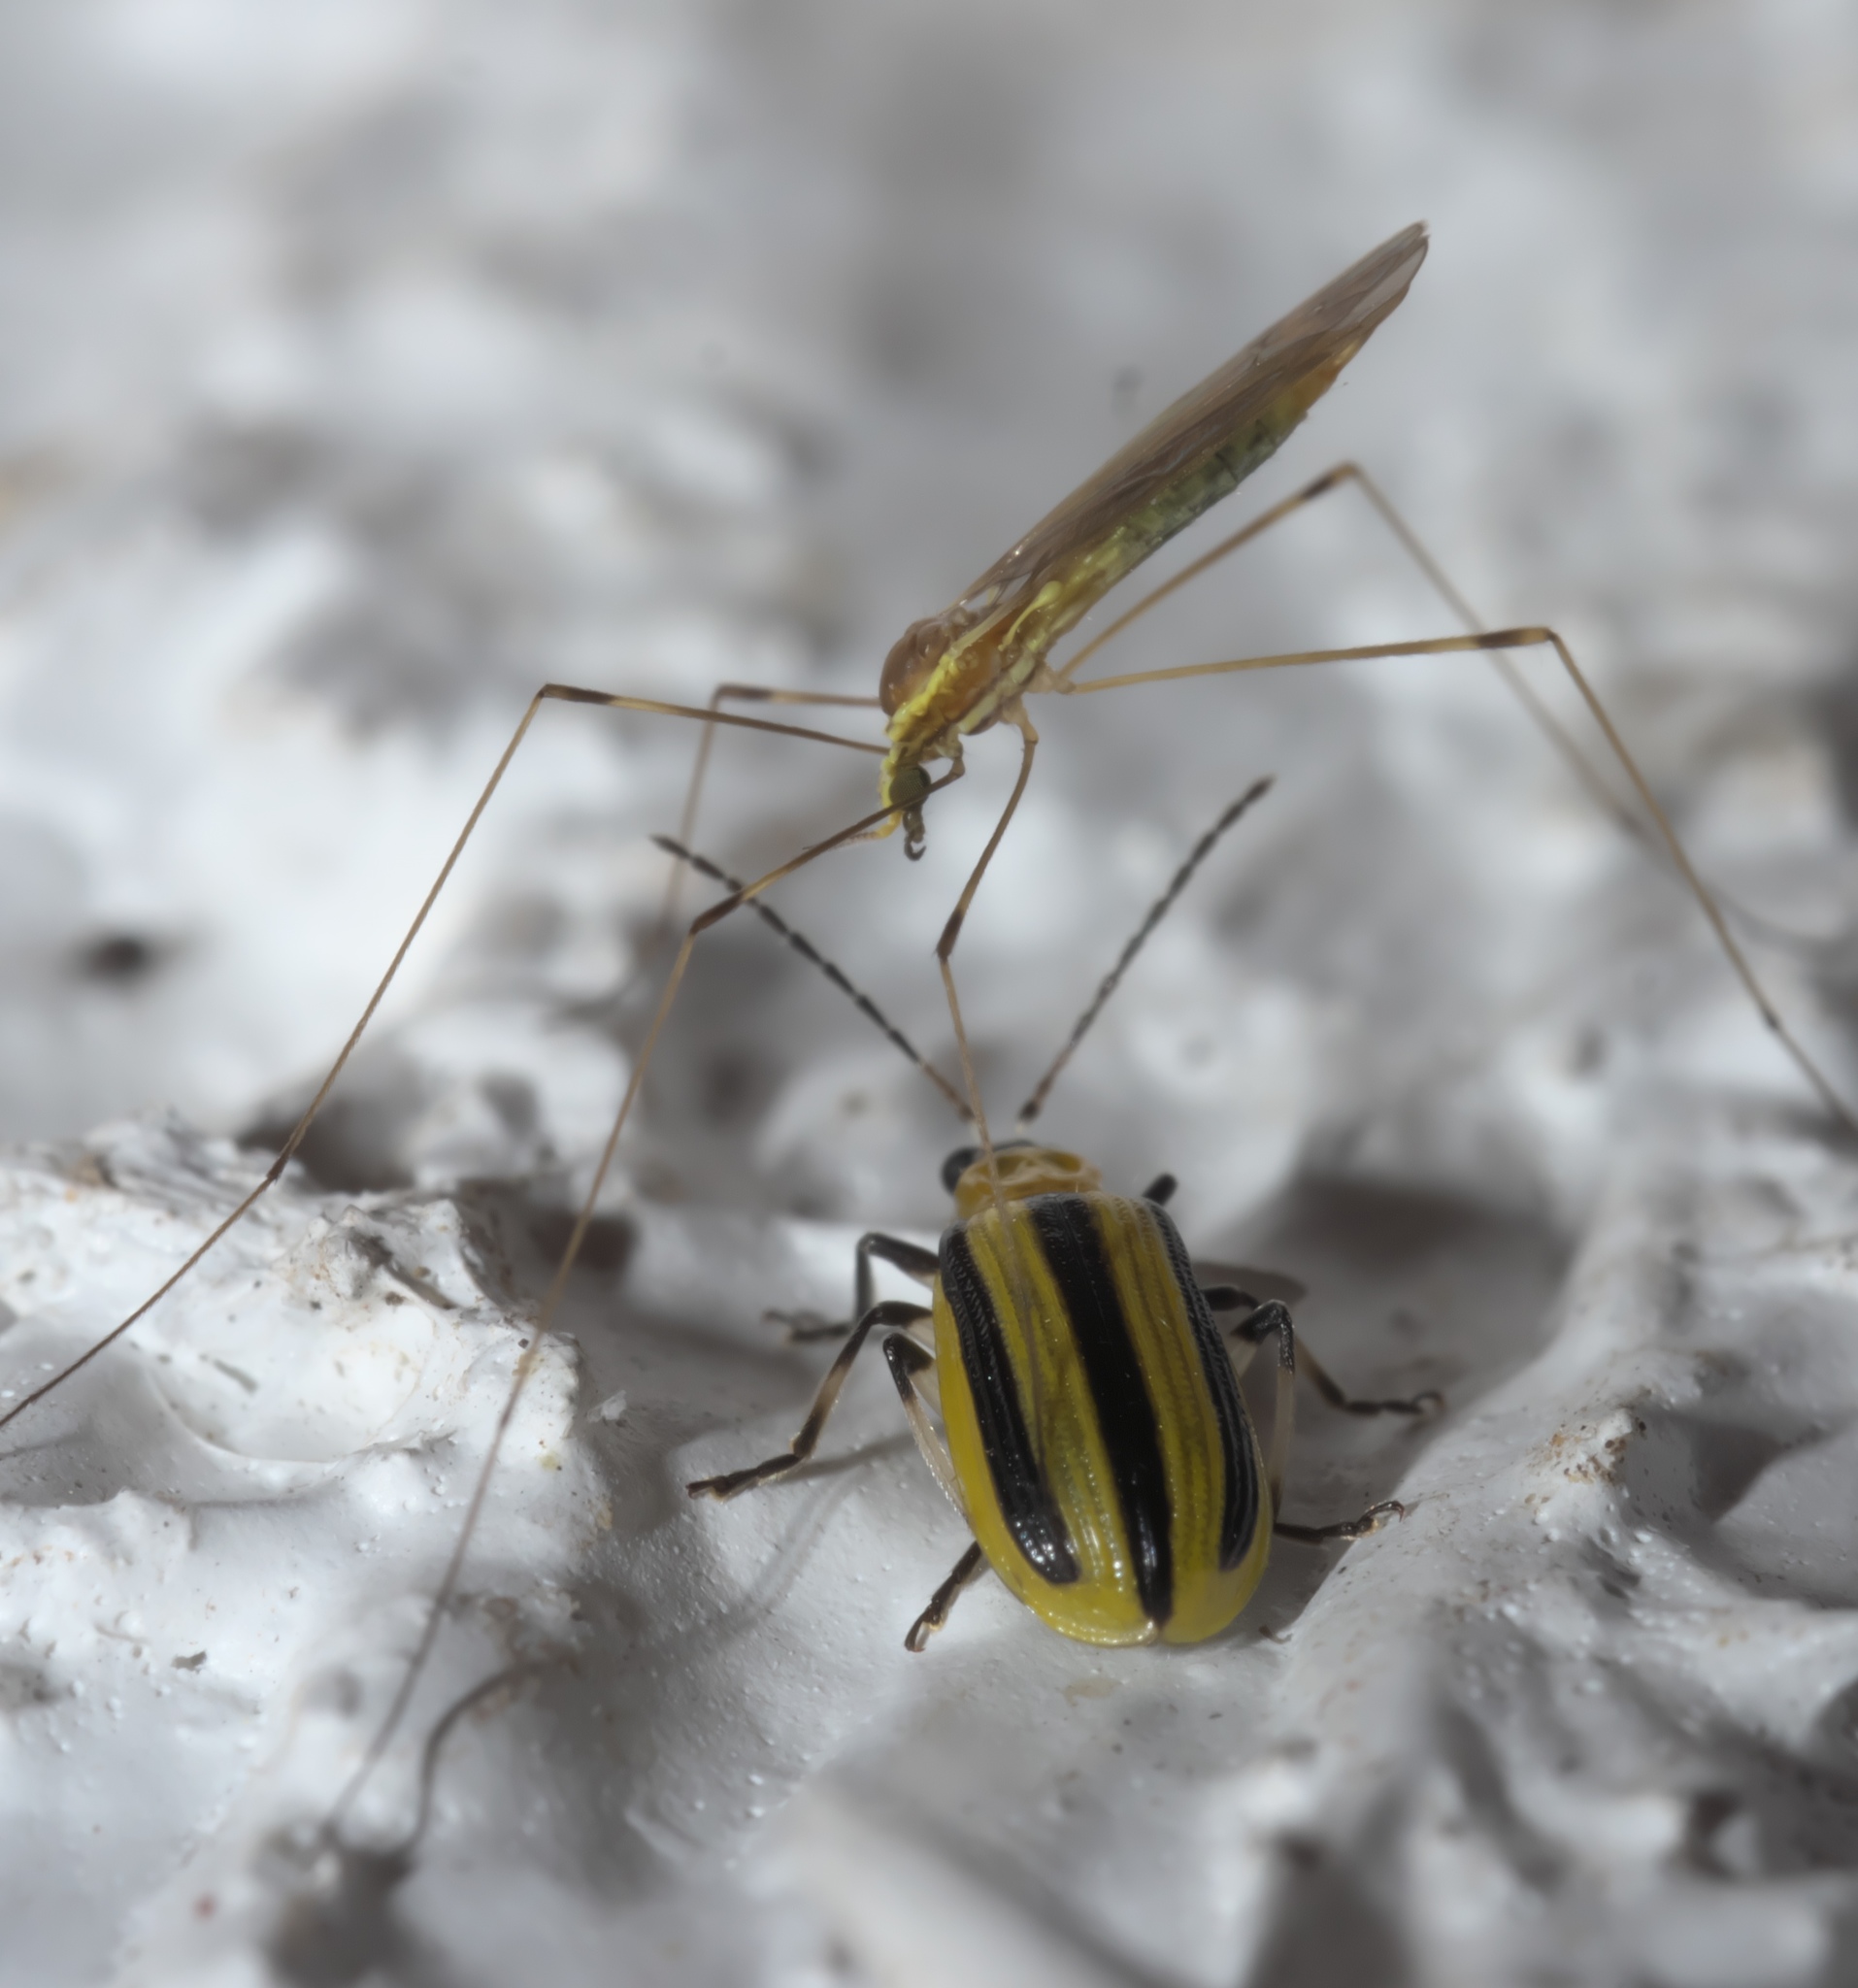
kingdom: Animalia
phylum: Arthropoda
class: Insecta
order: Diptera
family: Limoniidae
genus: Gonomyia
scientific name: Gonomyia sulphurella
